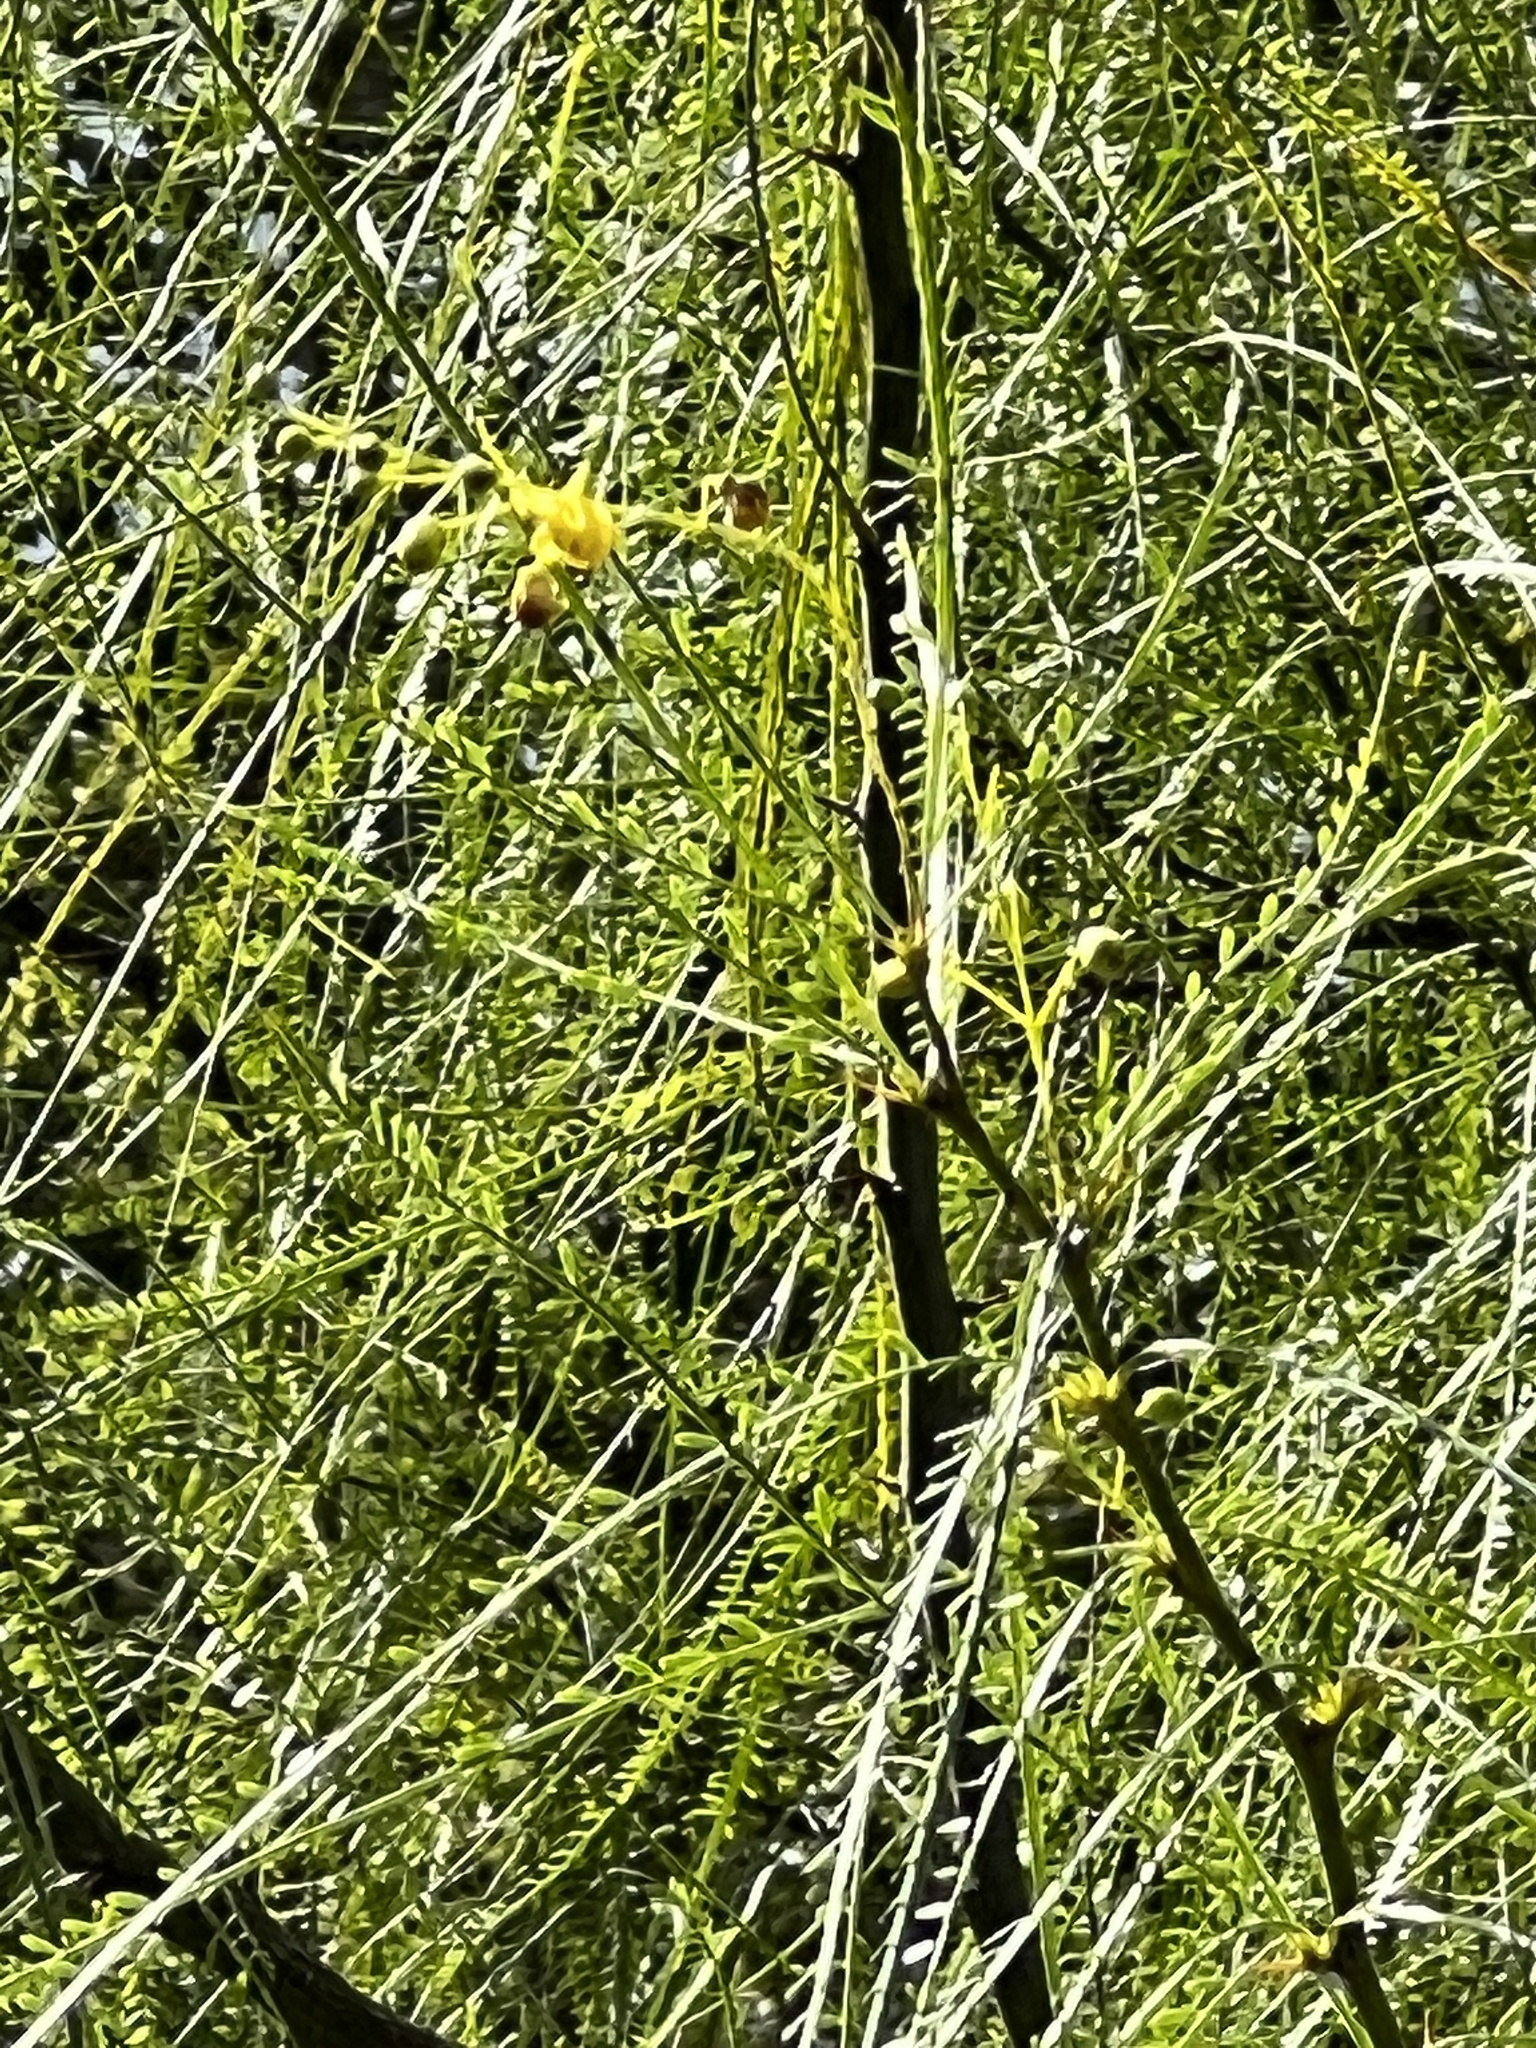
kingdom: Plantae
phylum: Tracheophyta
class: Magnoliopsida
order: Fabales
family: Fabaceae
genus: Parkinsonia
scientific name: Parkinsonia aculeata
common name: Jerusalem thorn
